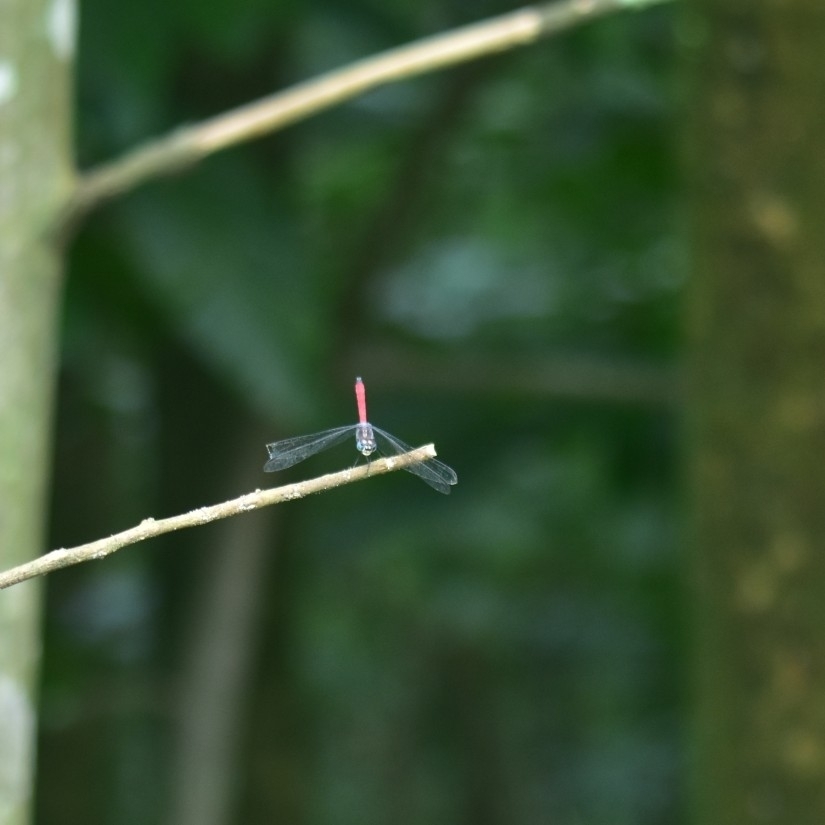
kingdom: Animalia
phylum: Arthropoda
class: Insecta
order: Odonata
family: Libellulidae
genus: Lathrecista
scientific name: Lathrecista asiatica
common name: Scarlet grenadier
